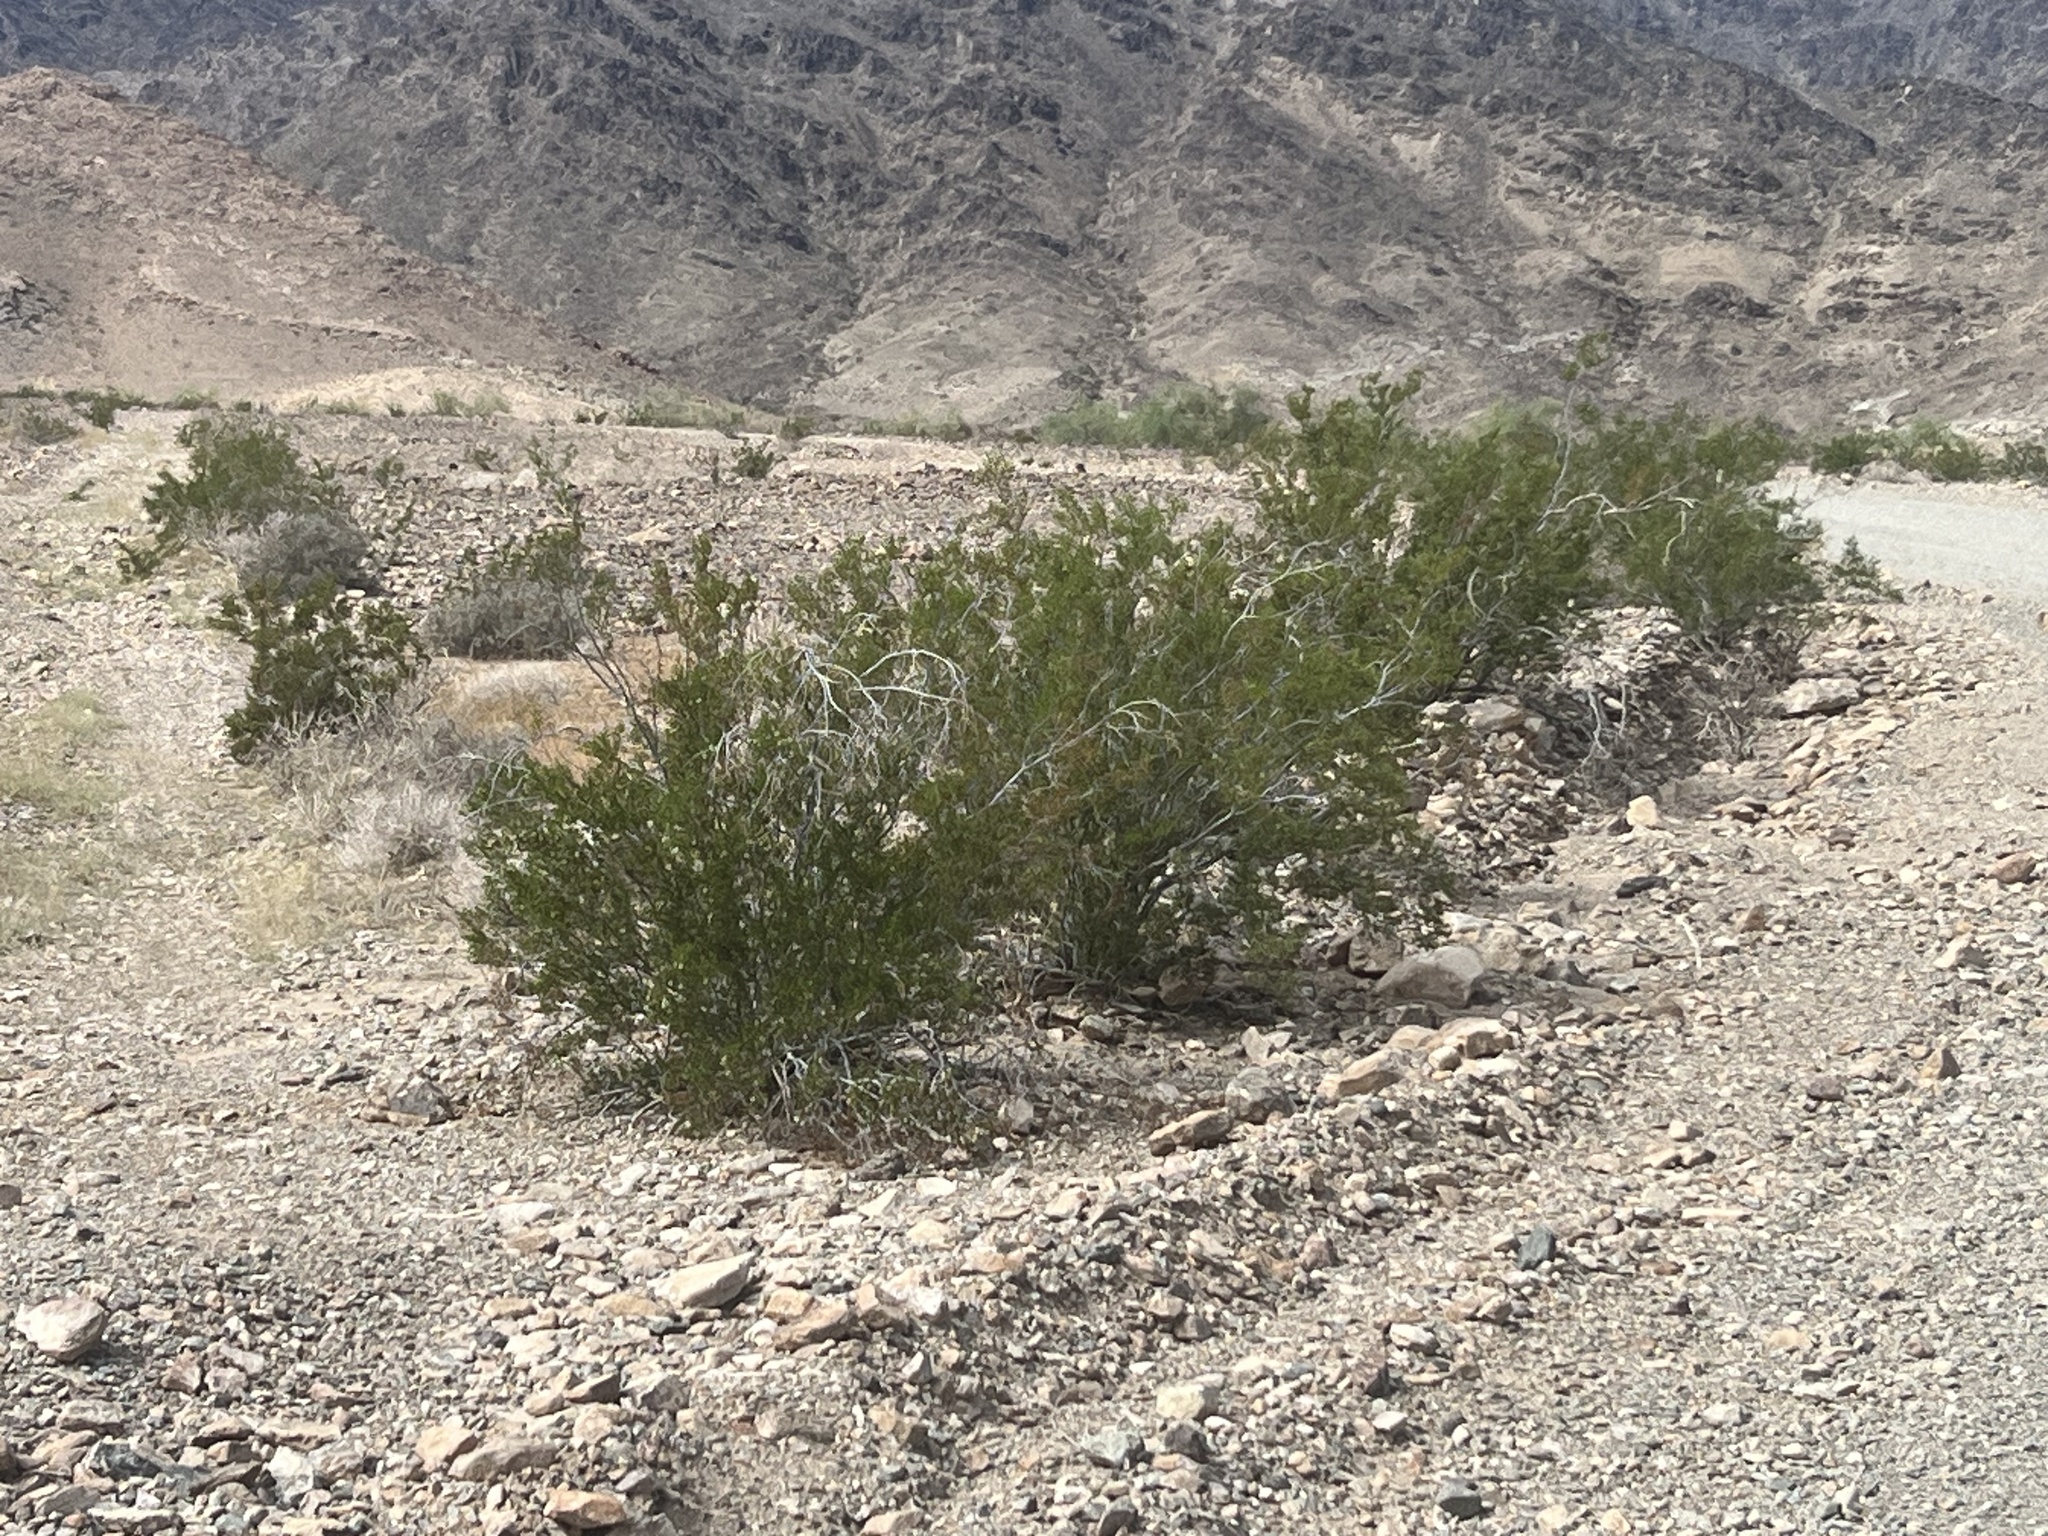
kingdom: Plantae
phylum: Tracheophyta
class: Magnoliopsida
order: Zygophyllales
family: Zygophyllaceae
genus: Larrea
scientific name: Larrea tridentata
